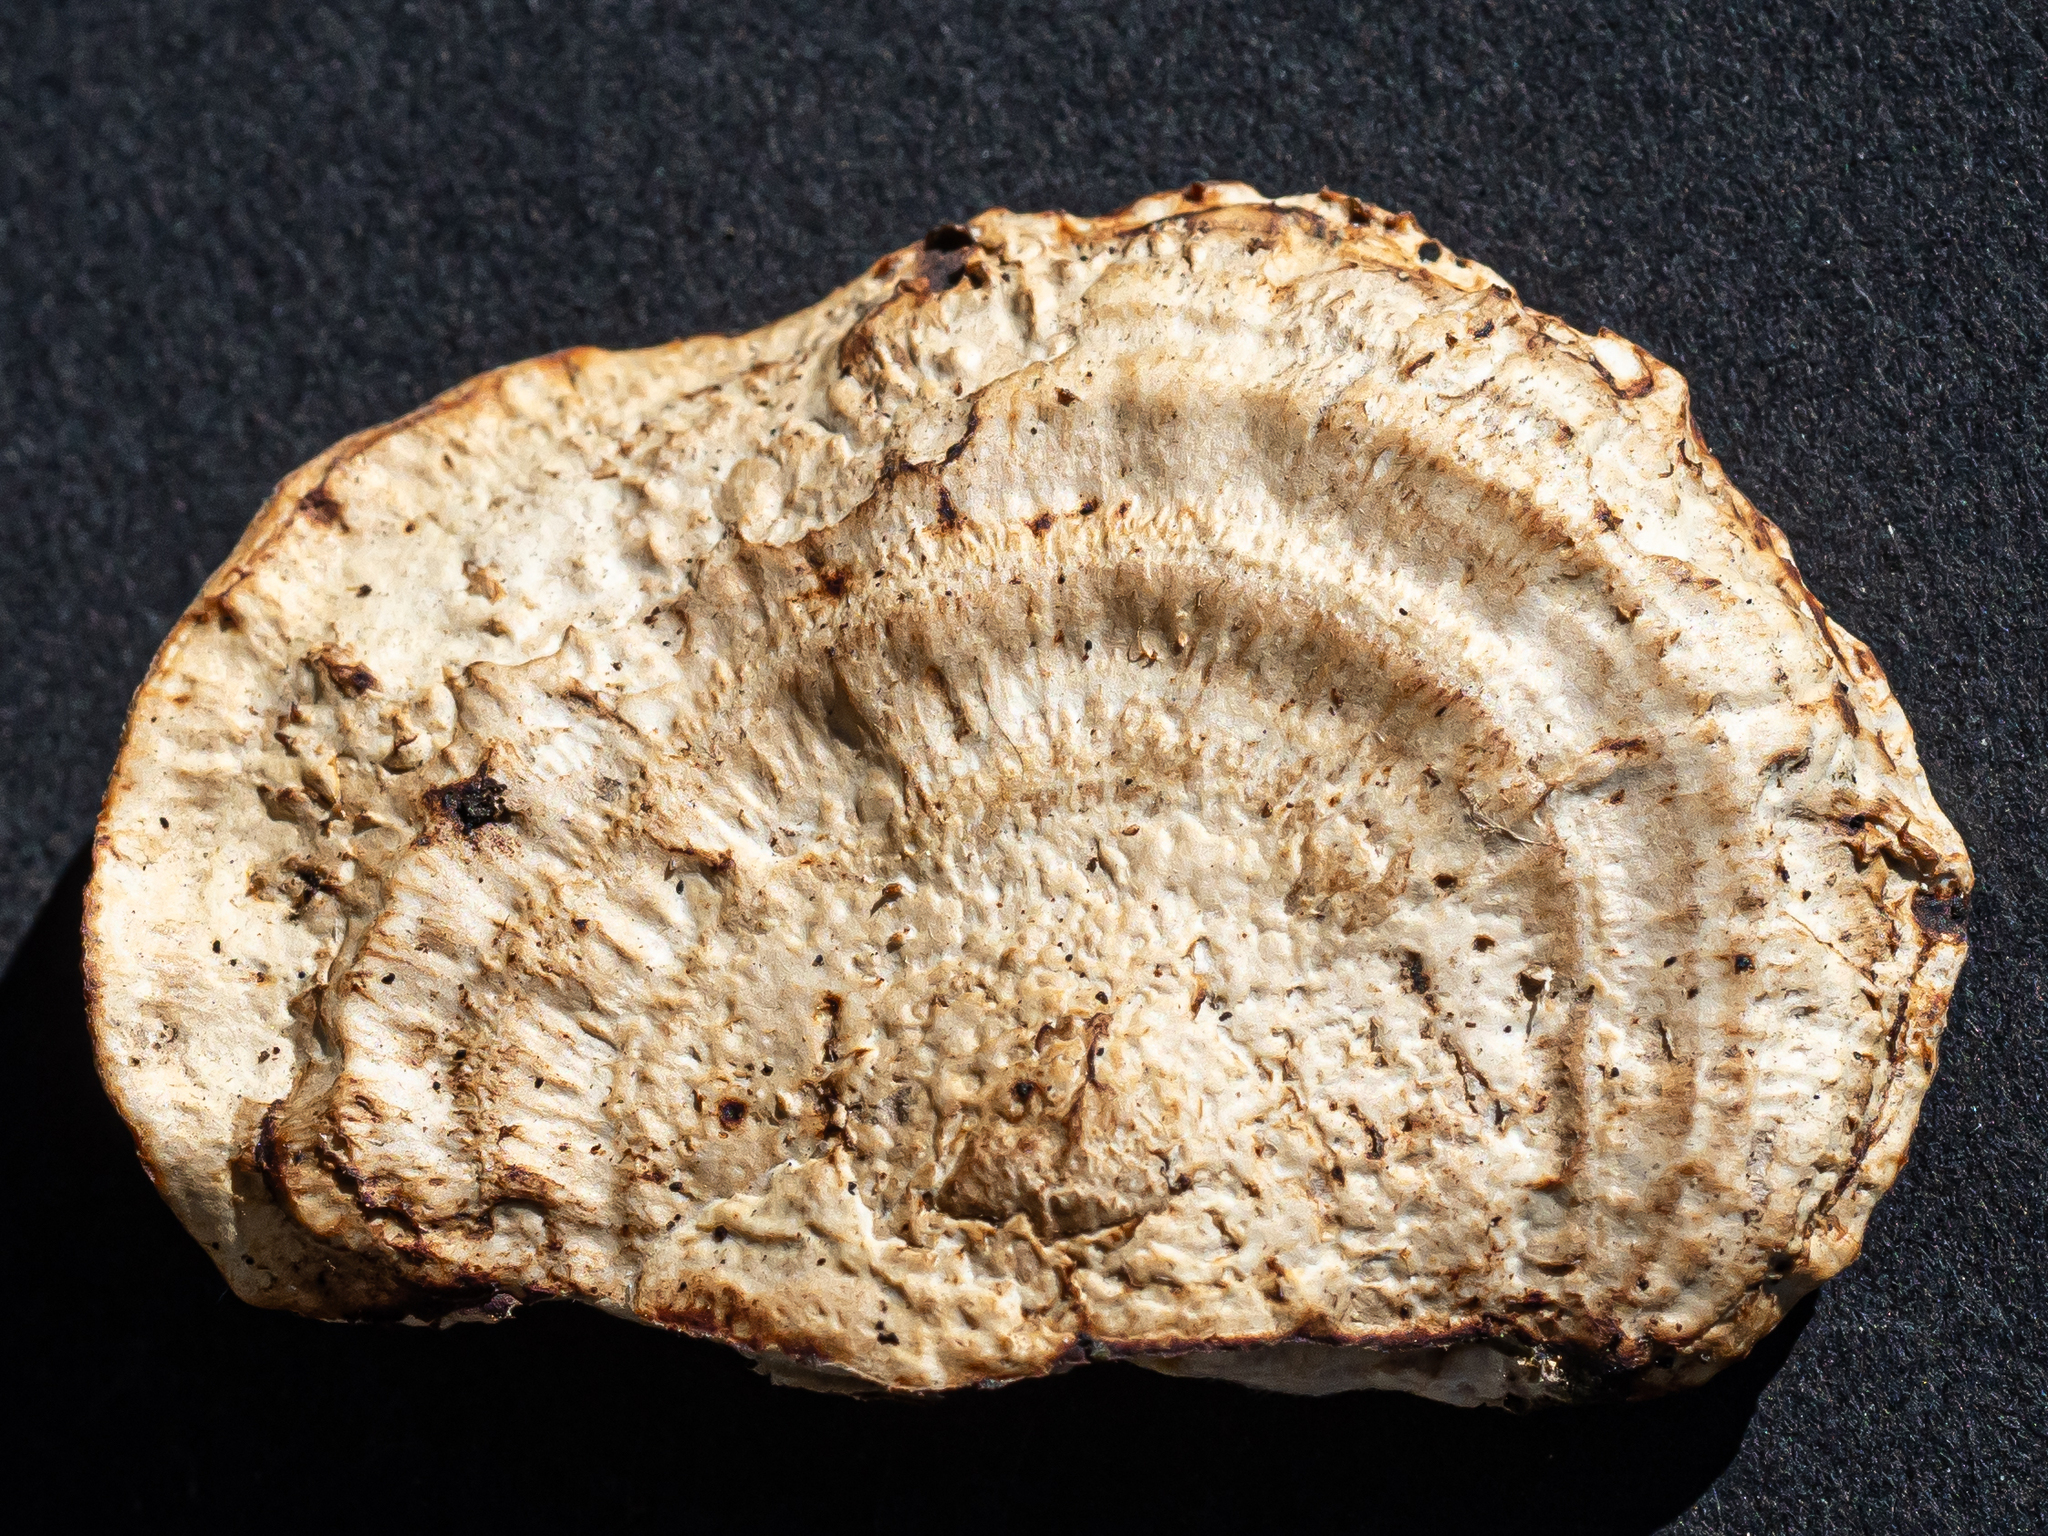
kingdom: Fungi
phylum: Basidiomycota
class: Agaricomycetes
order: Polyporales
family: Polyporaceae
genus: Daedaleopsis
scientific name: Daedaleopsis confragosa
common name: Blushing bracket
